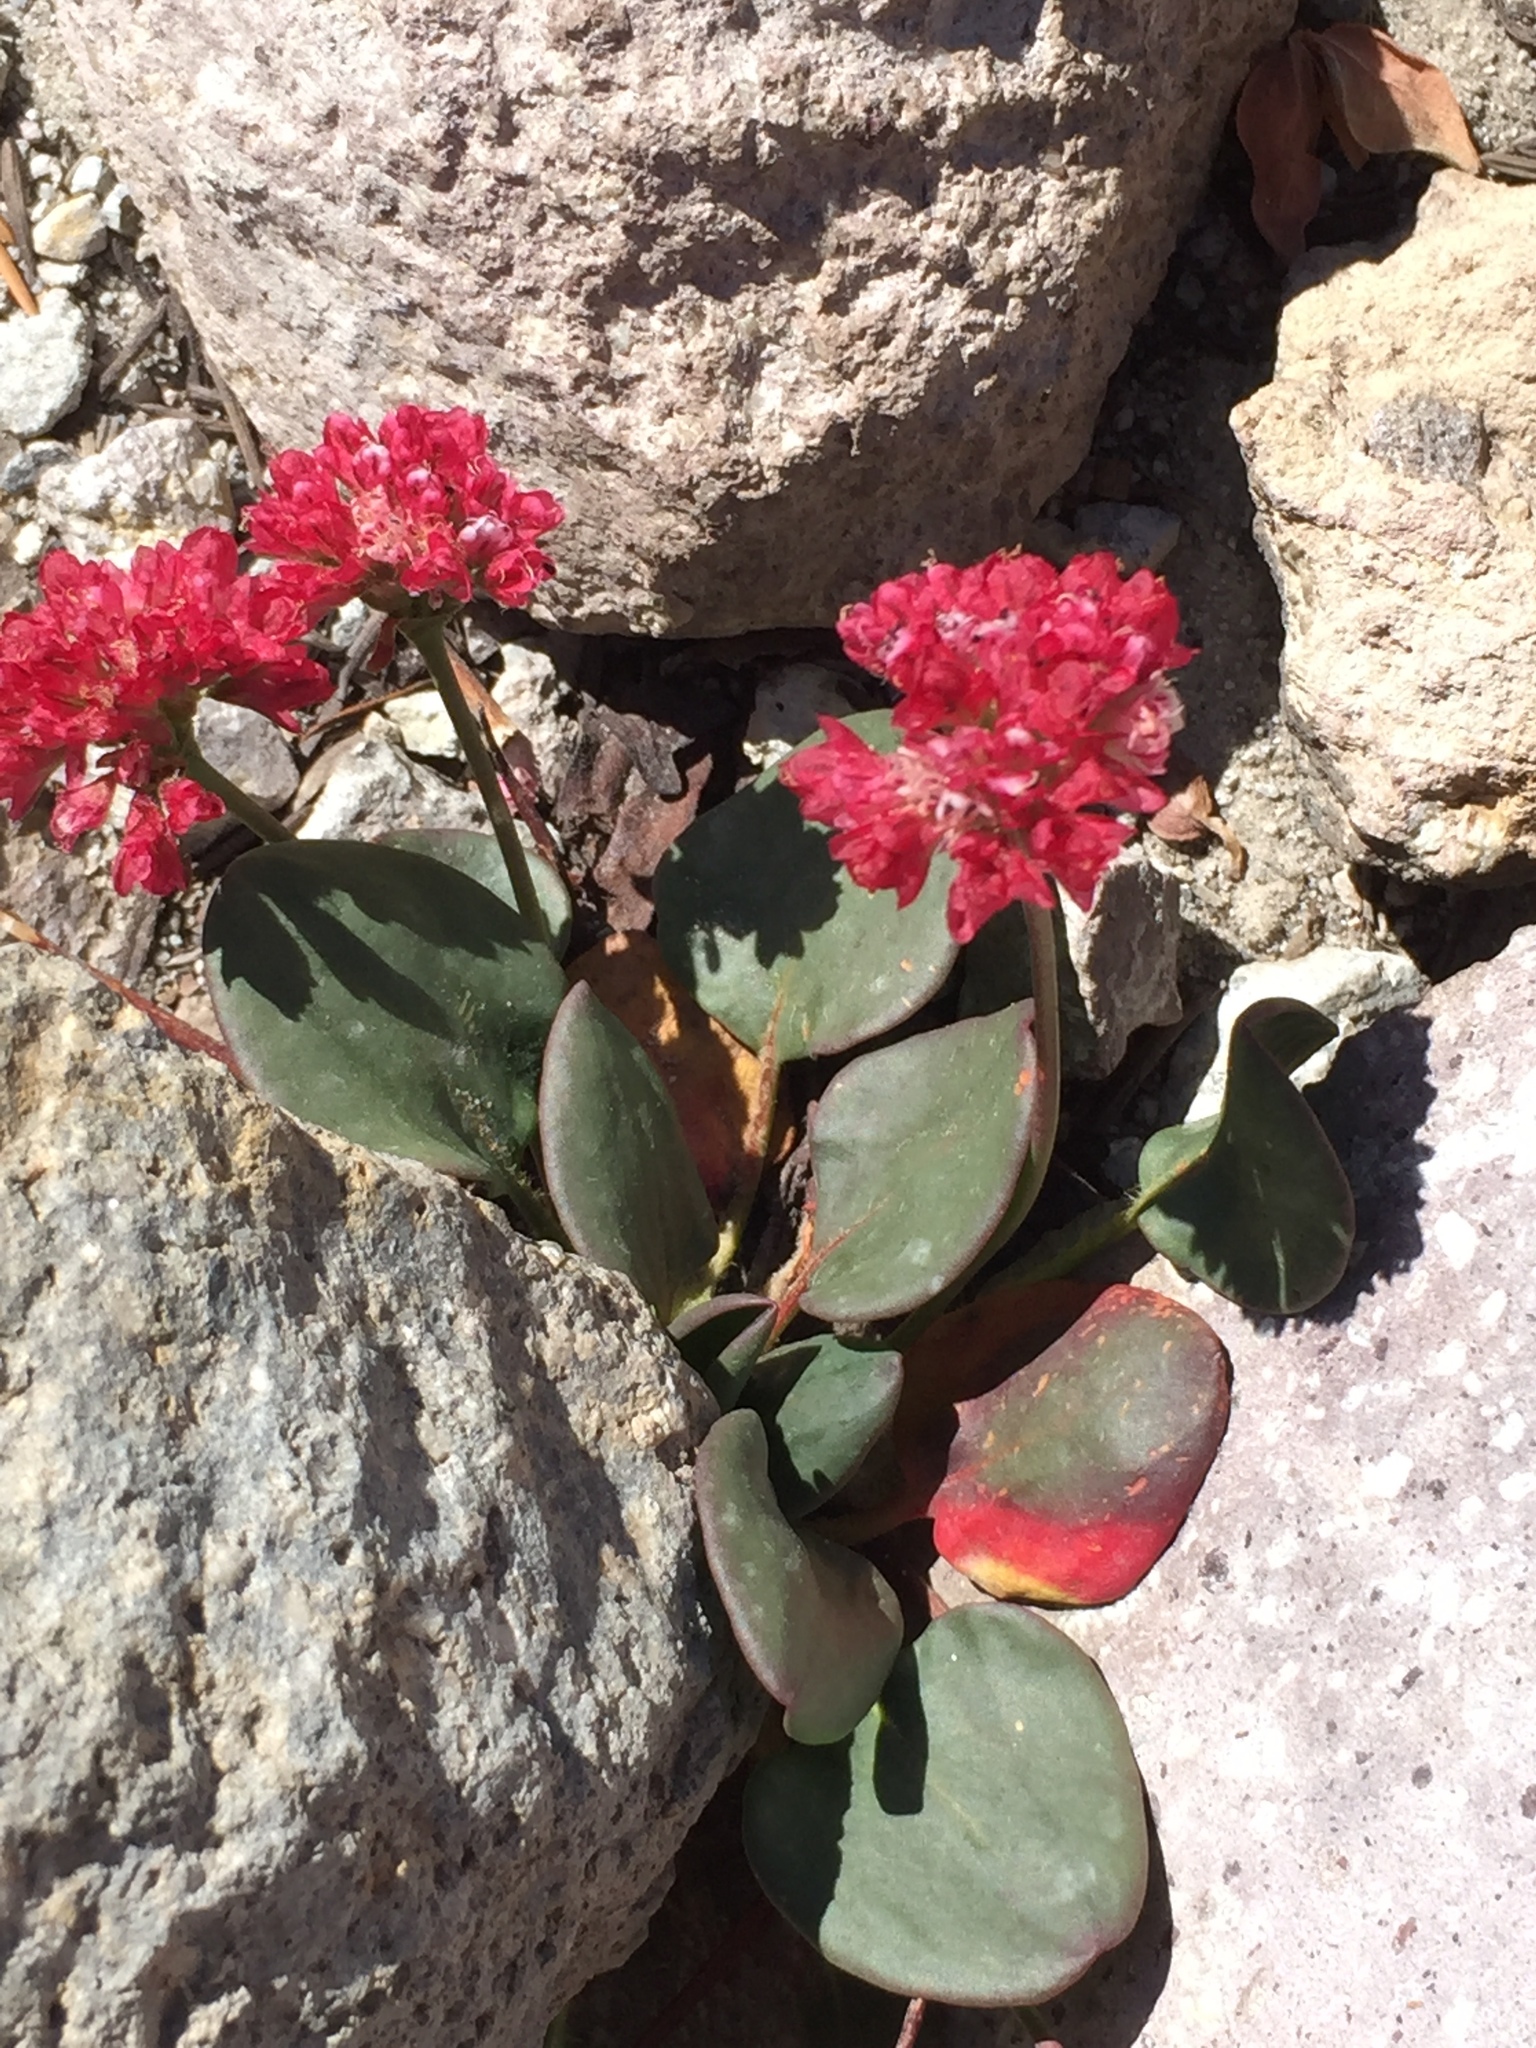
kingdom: Plantae
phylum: Tracheophyta
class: Magnoliopsida
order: Caryophyllales
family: Polygonaceae
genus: Eriogonum
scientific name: Eriogonum pyrolifolium
